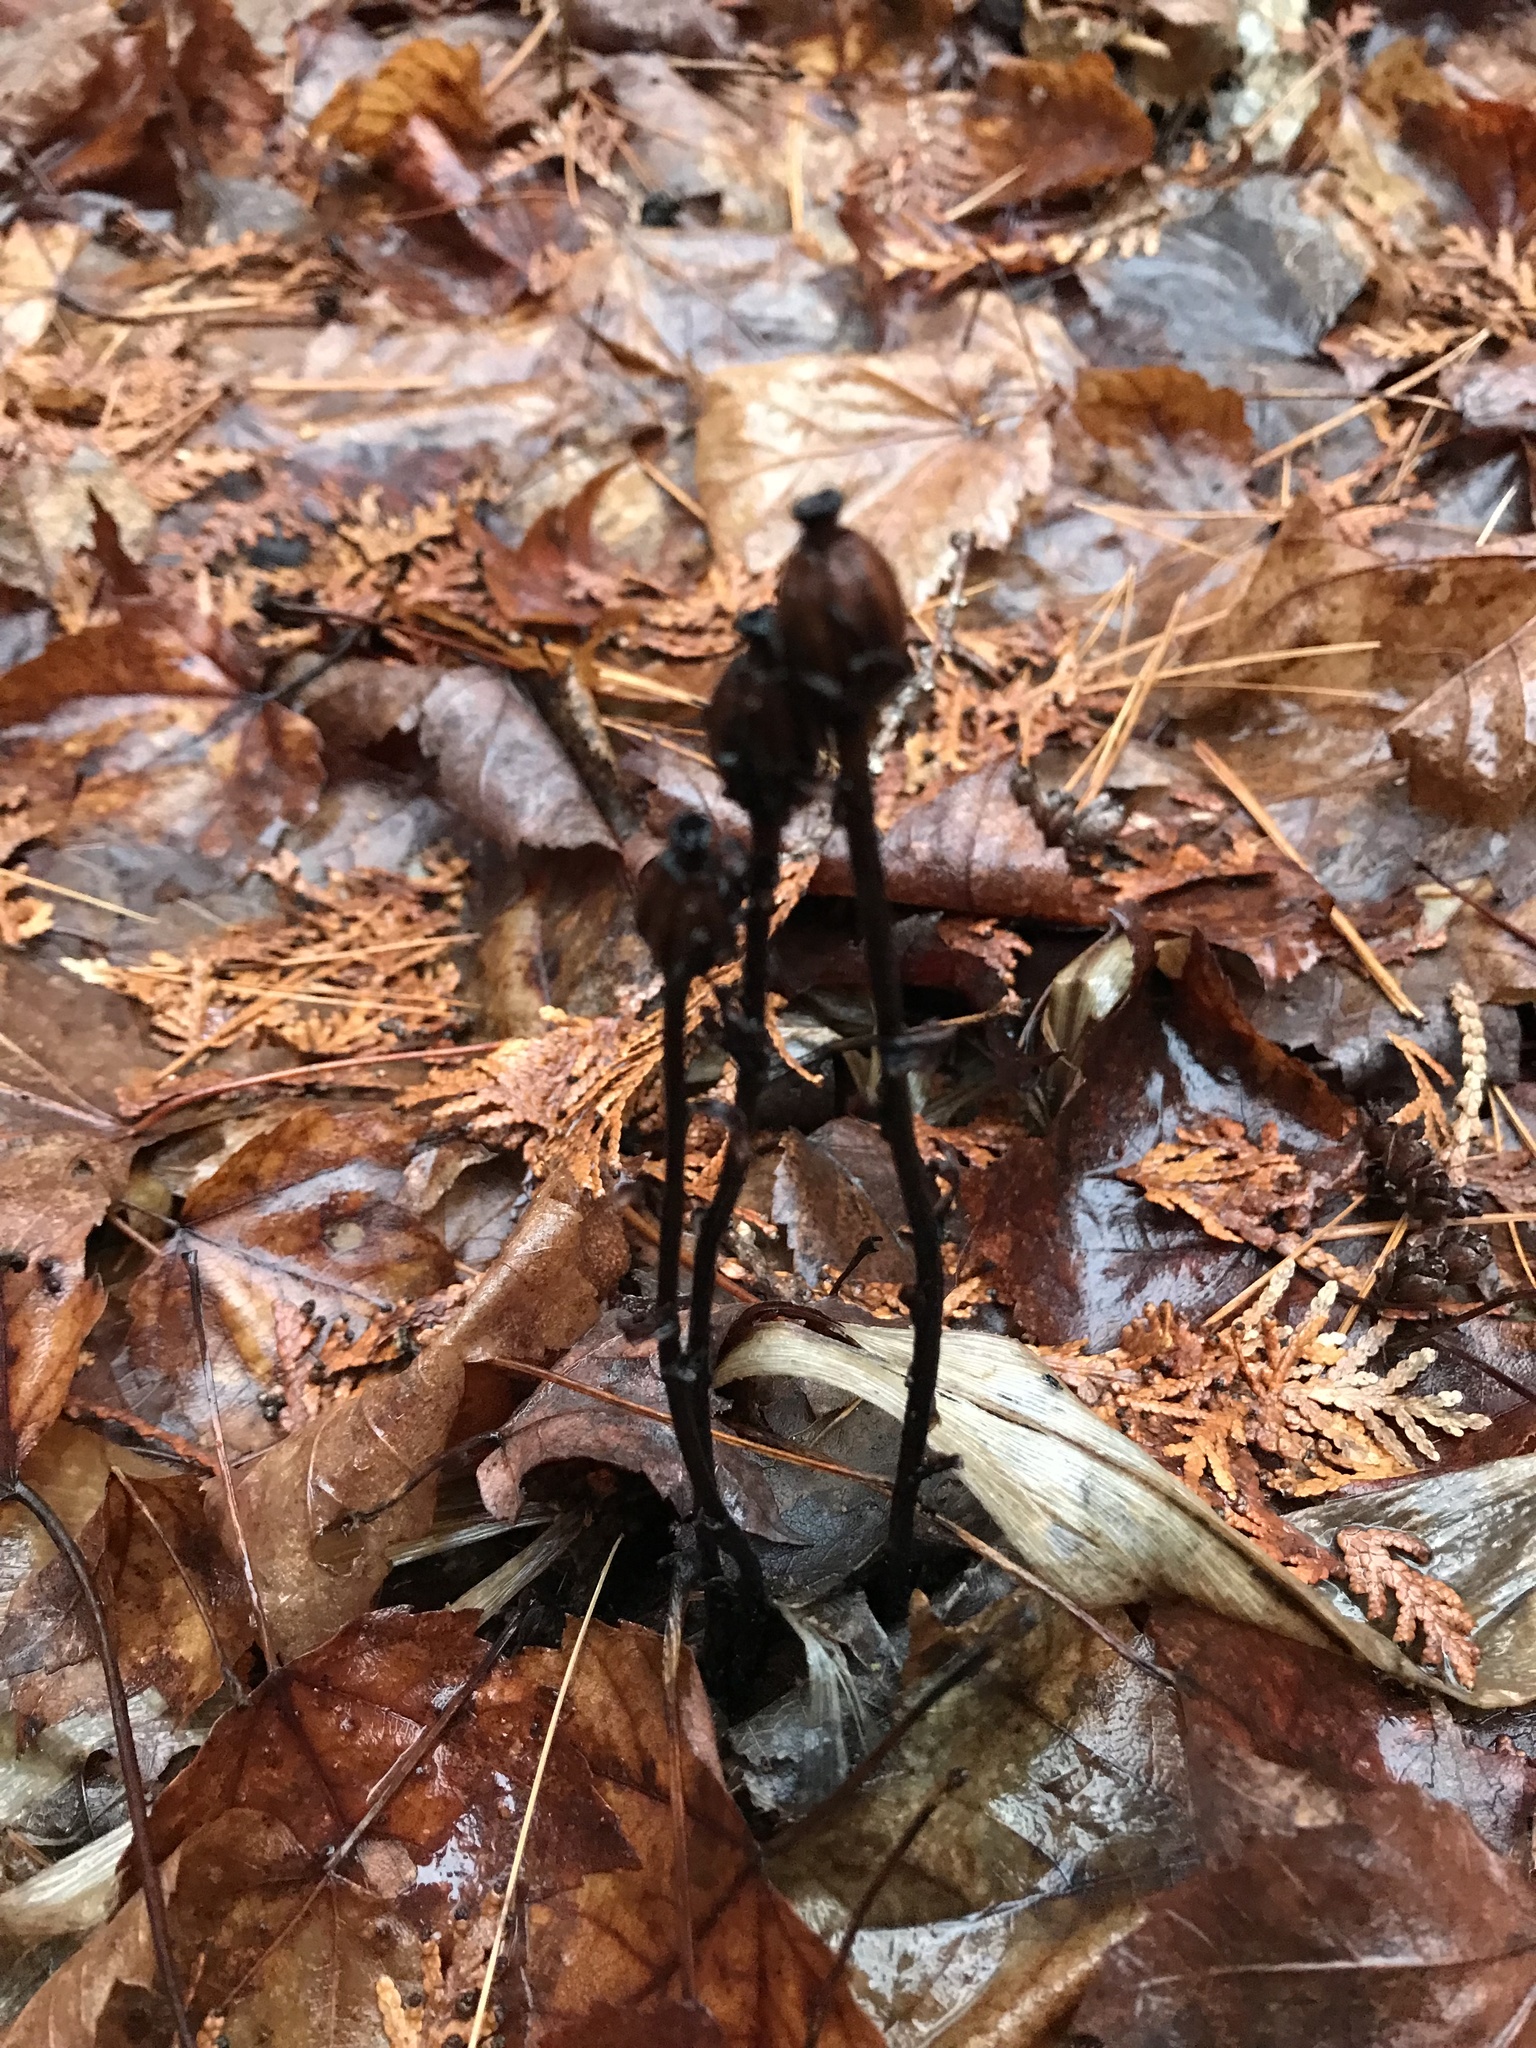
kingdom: Plantae
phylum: Tracheophyta
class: Magnoliopsida
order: Ericales
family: Ericaceae
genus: Monotropa
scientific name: Monotropa uniflora
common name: Convulsion root
